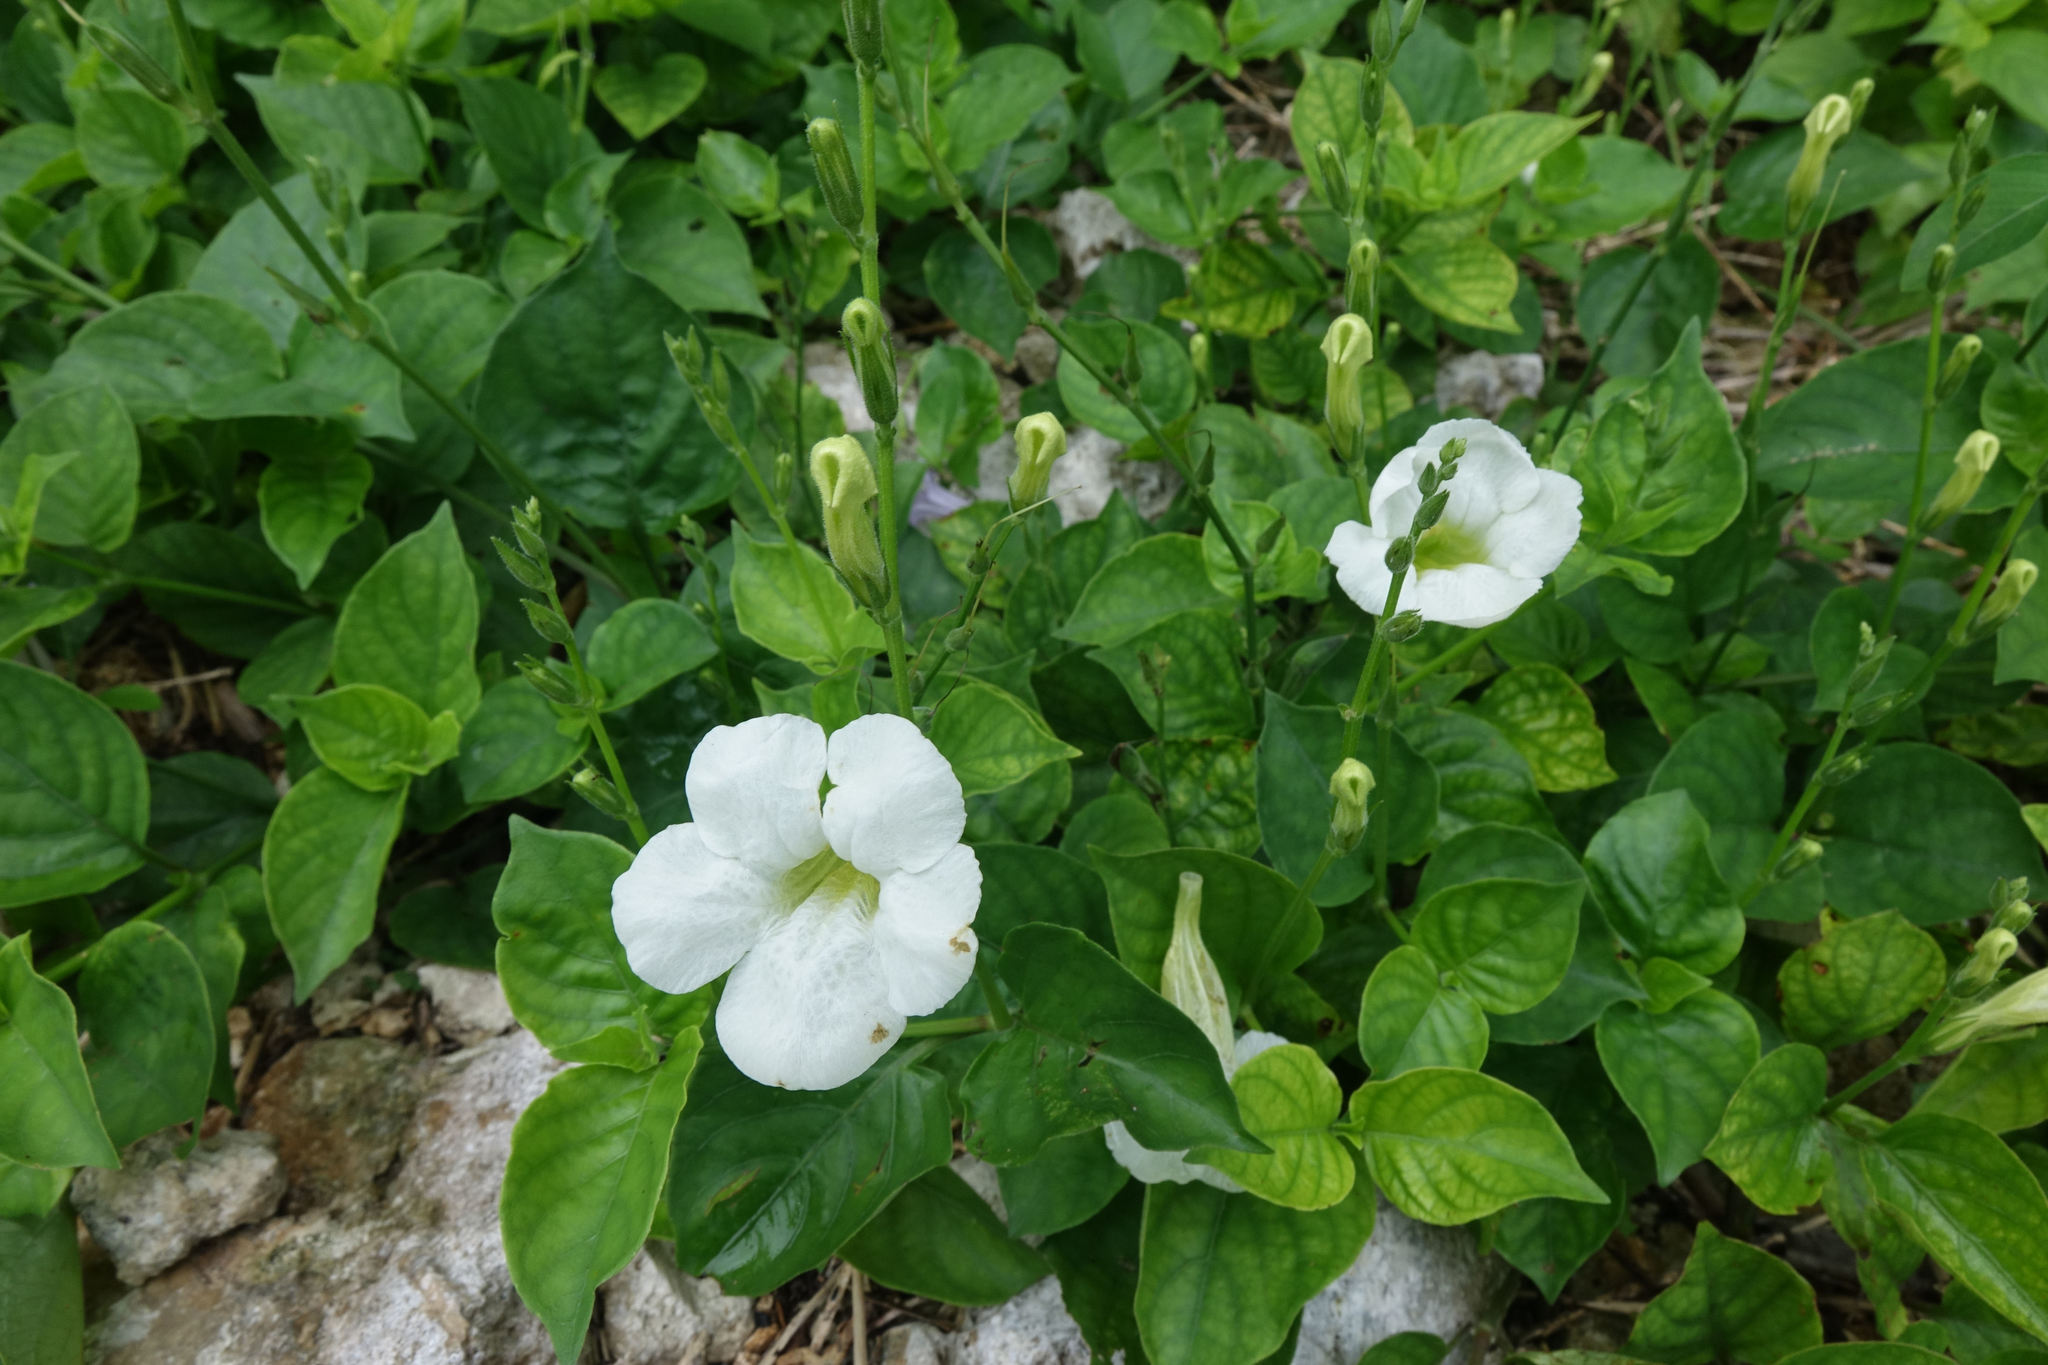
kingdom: Plantae
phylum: Tracheophyta
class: Magnoliopsida
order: Lamiales
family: Acanthaceae
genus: Asystasia
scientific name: Asystasia gangetica
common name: Chinese violet
